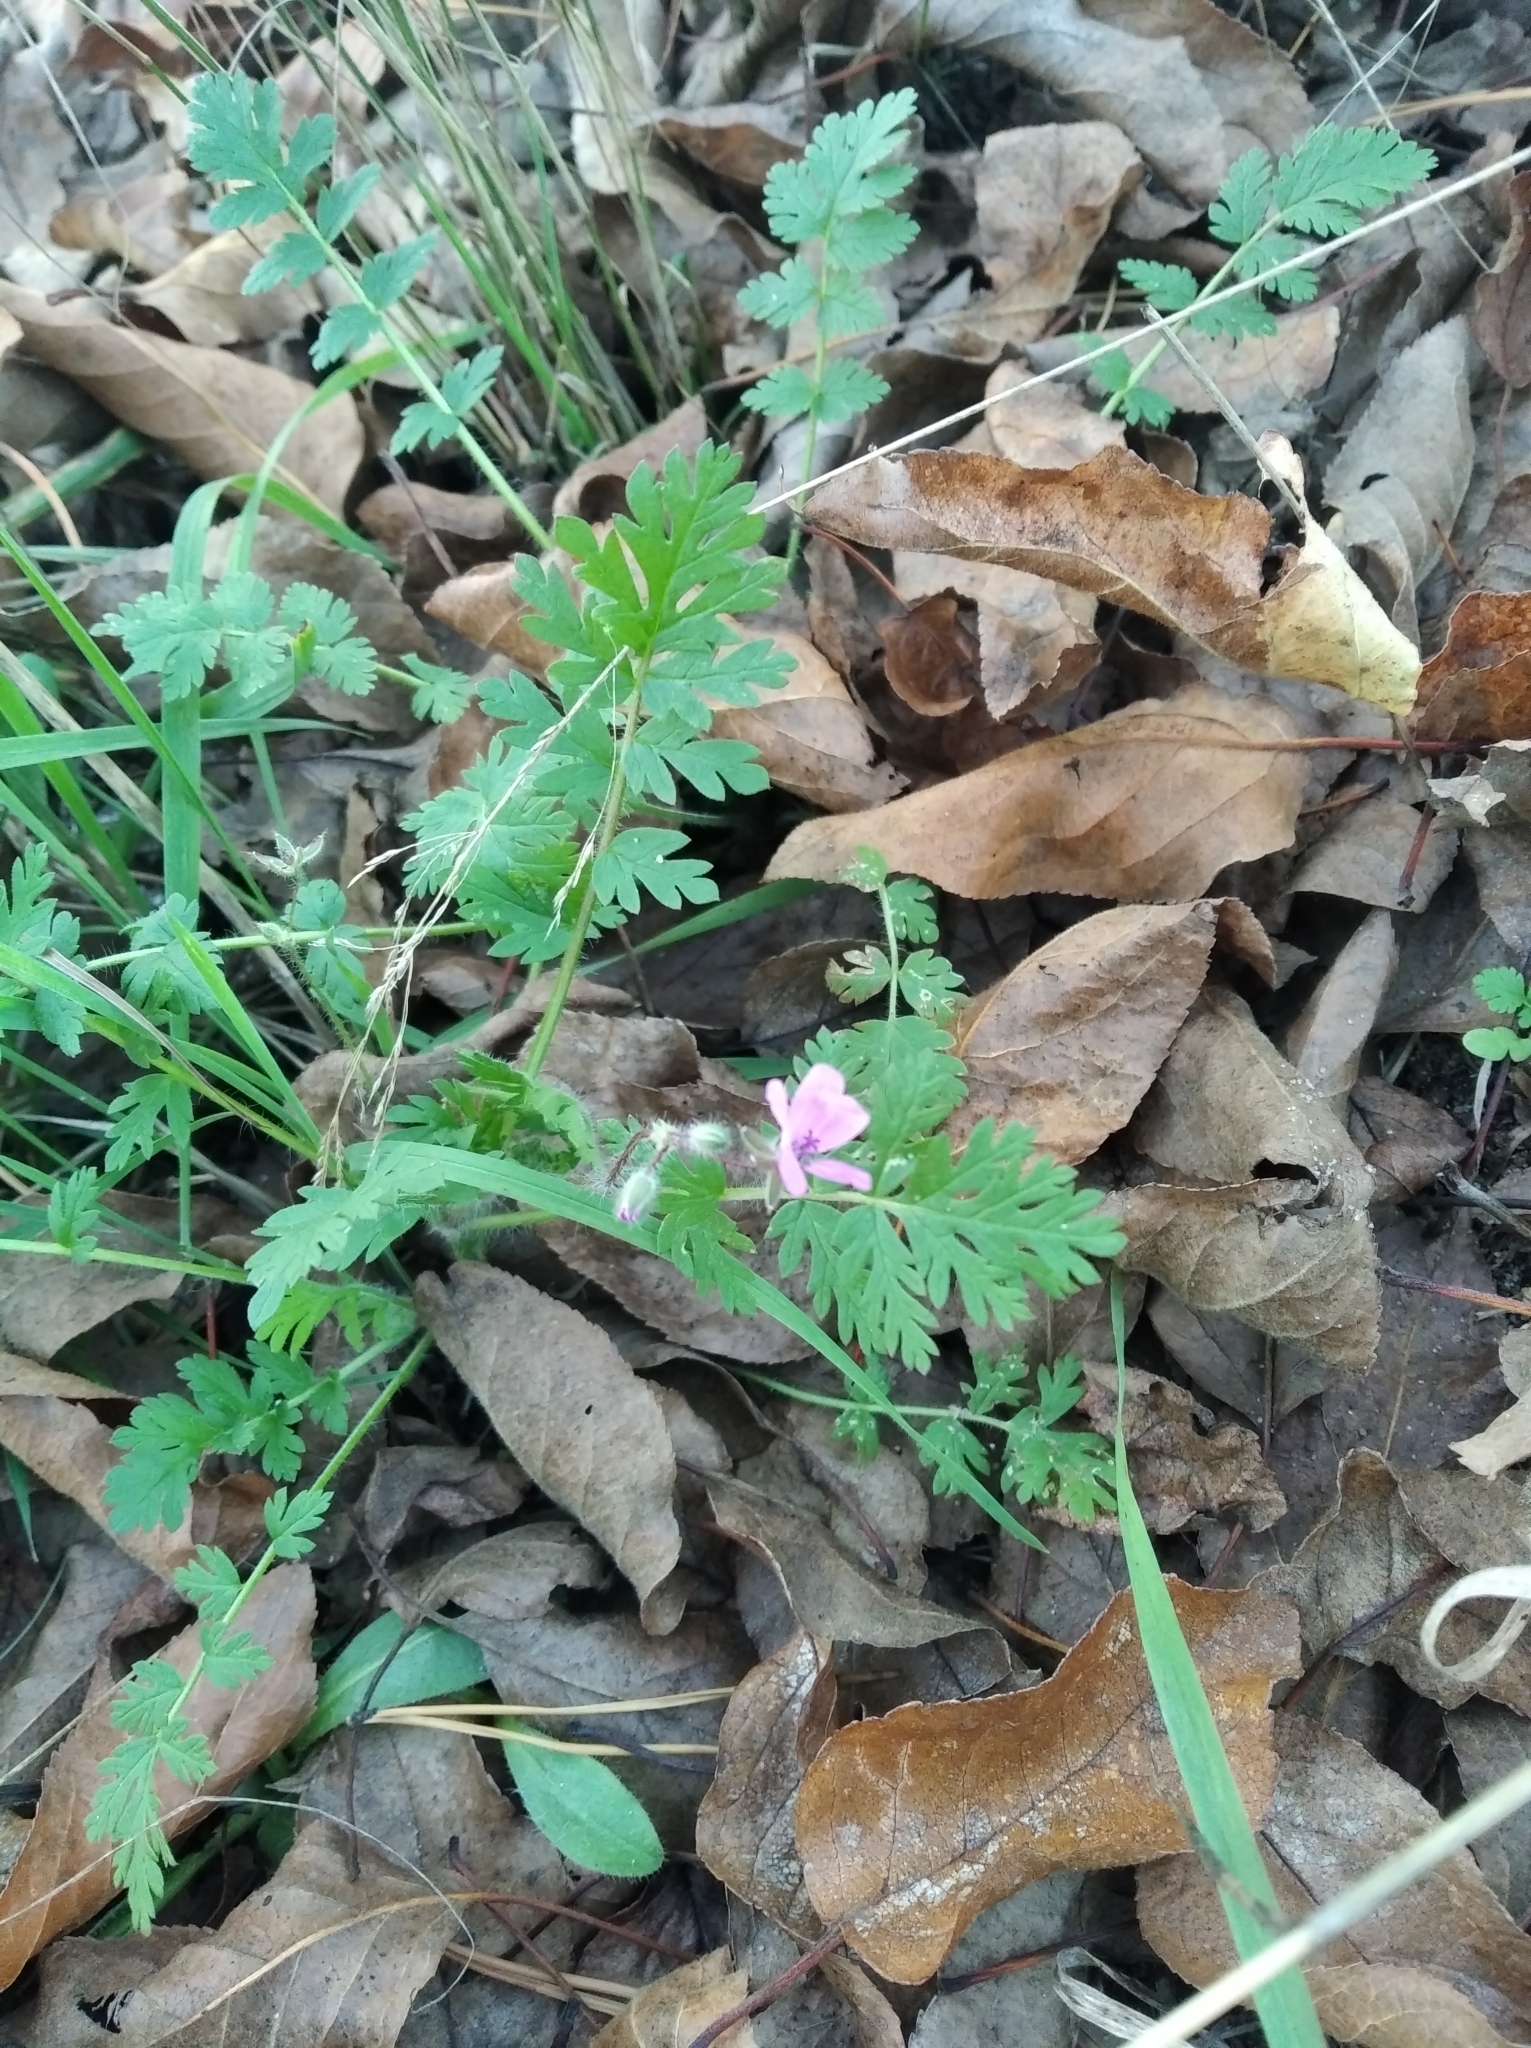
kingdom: Plantae
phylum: Tracheophyta
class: Magnoliopsida
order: Geraniales
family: Geraniaceae
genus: Erodium
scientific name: Erodium cicutarium
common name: Common stork's-bill
